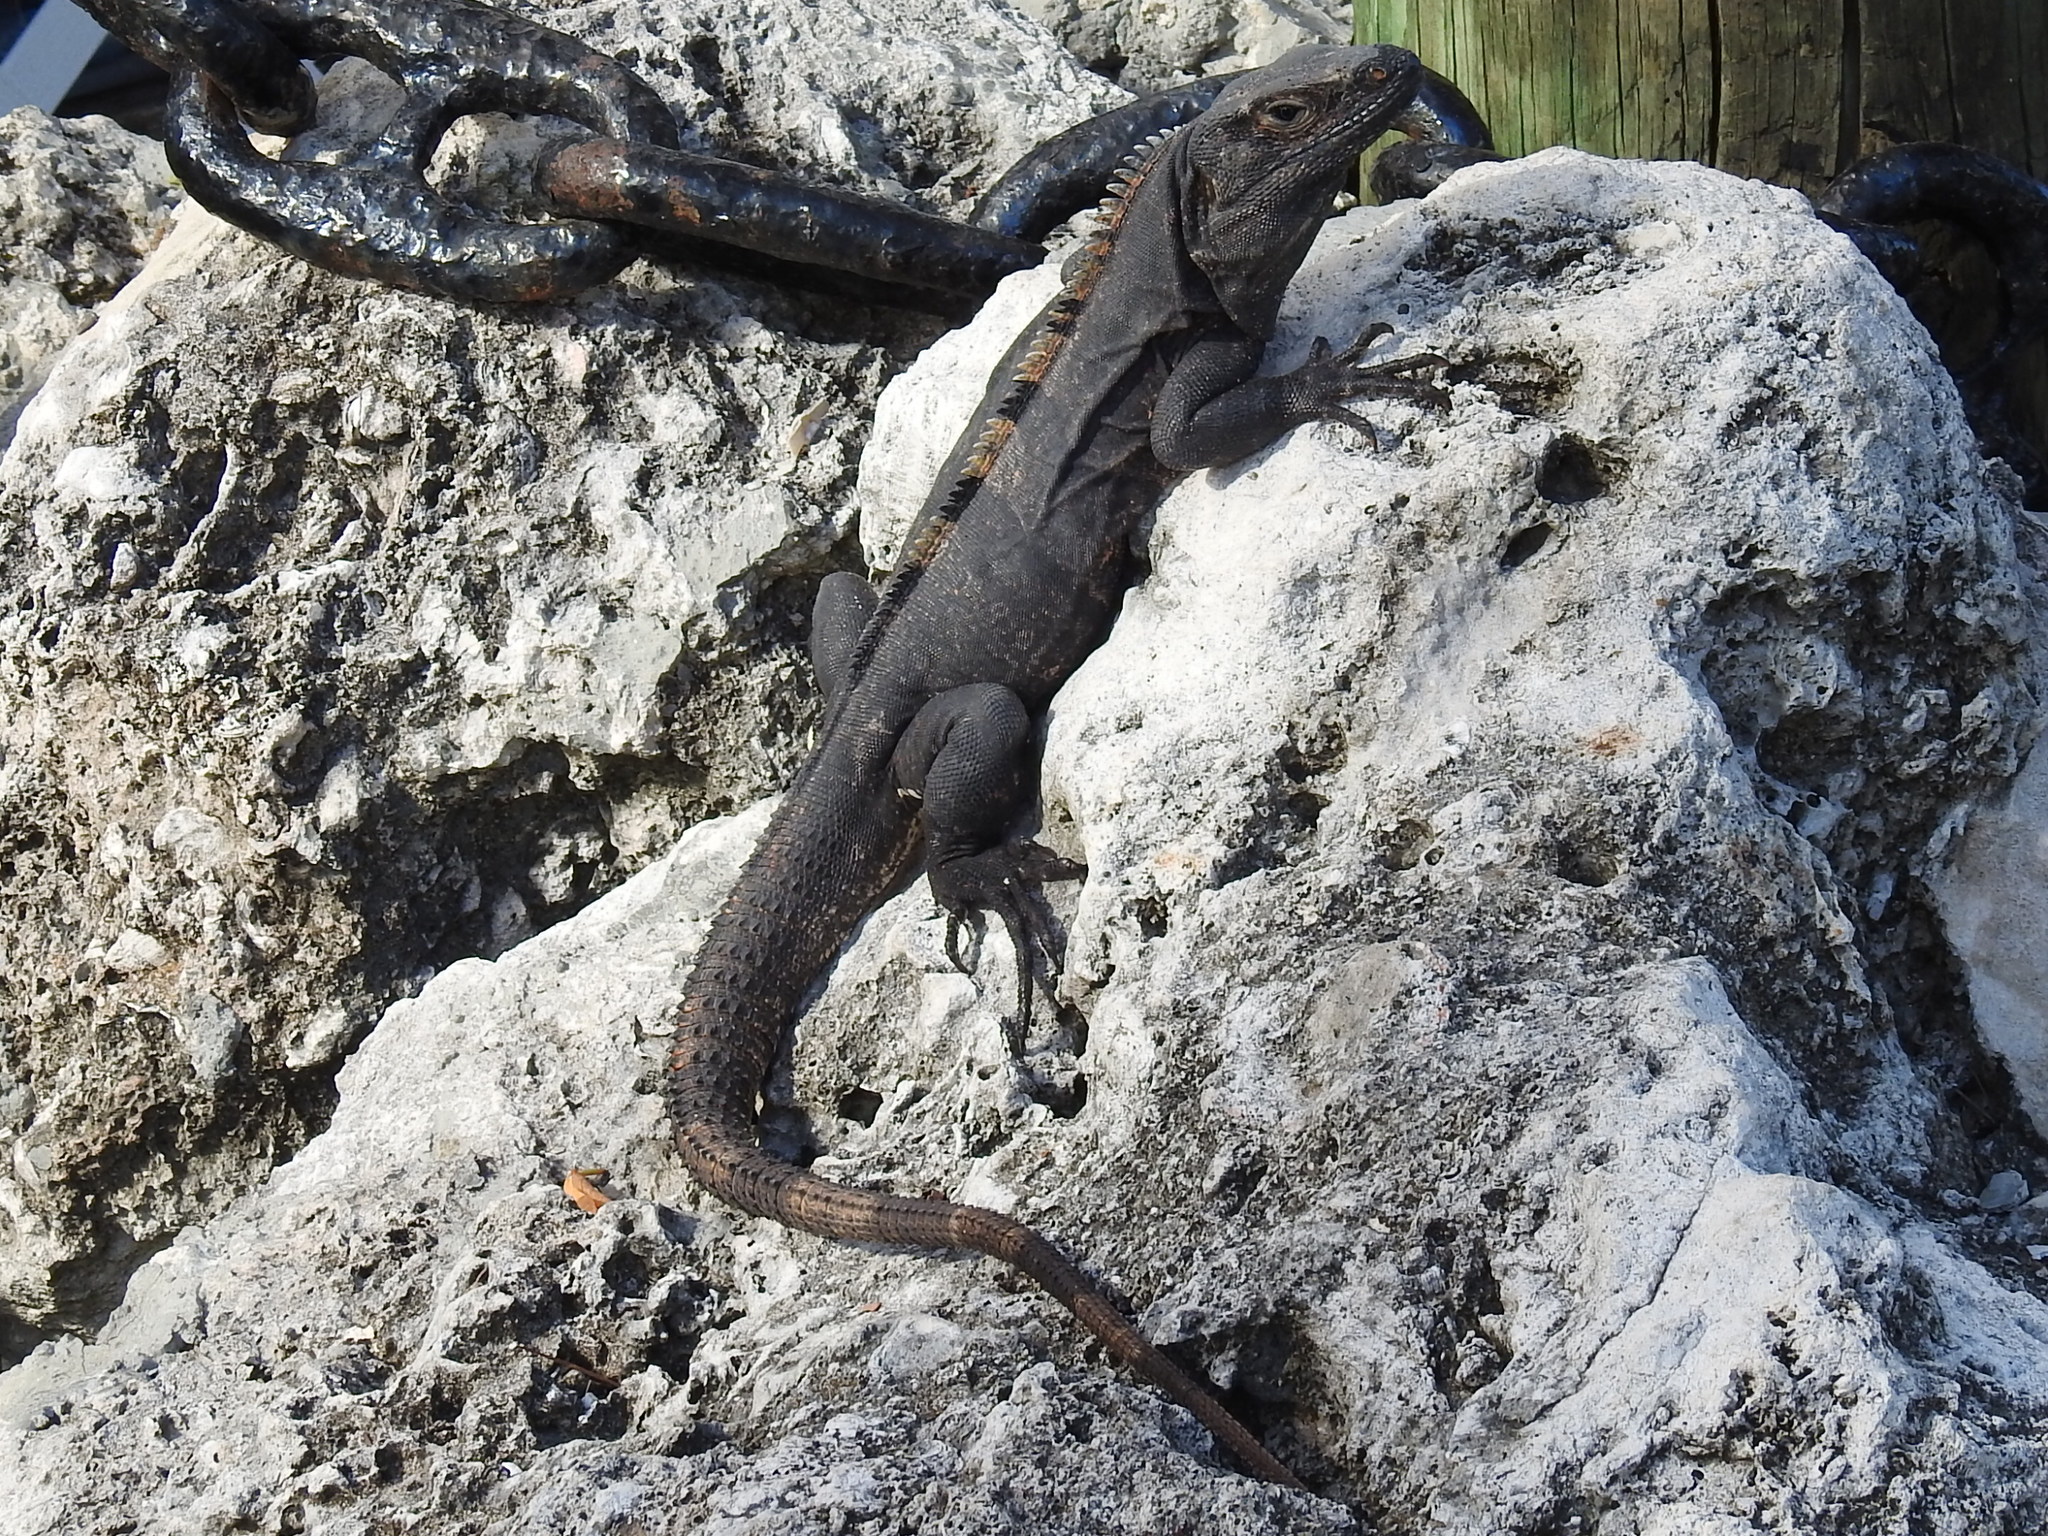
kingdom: Animalia
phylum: Chordata
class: Squamata
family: Iguanidae
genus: Ctenosaura
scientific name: Ctenosaura similis
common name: Black spiny-tailed iguana
